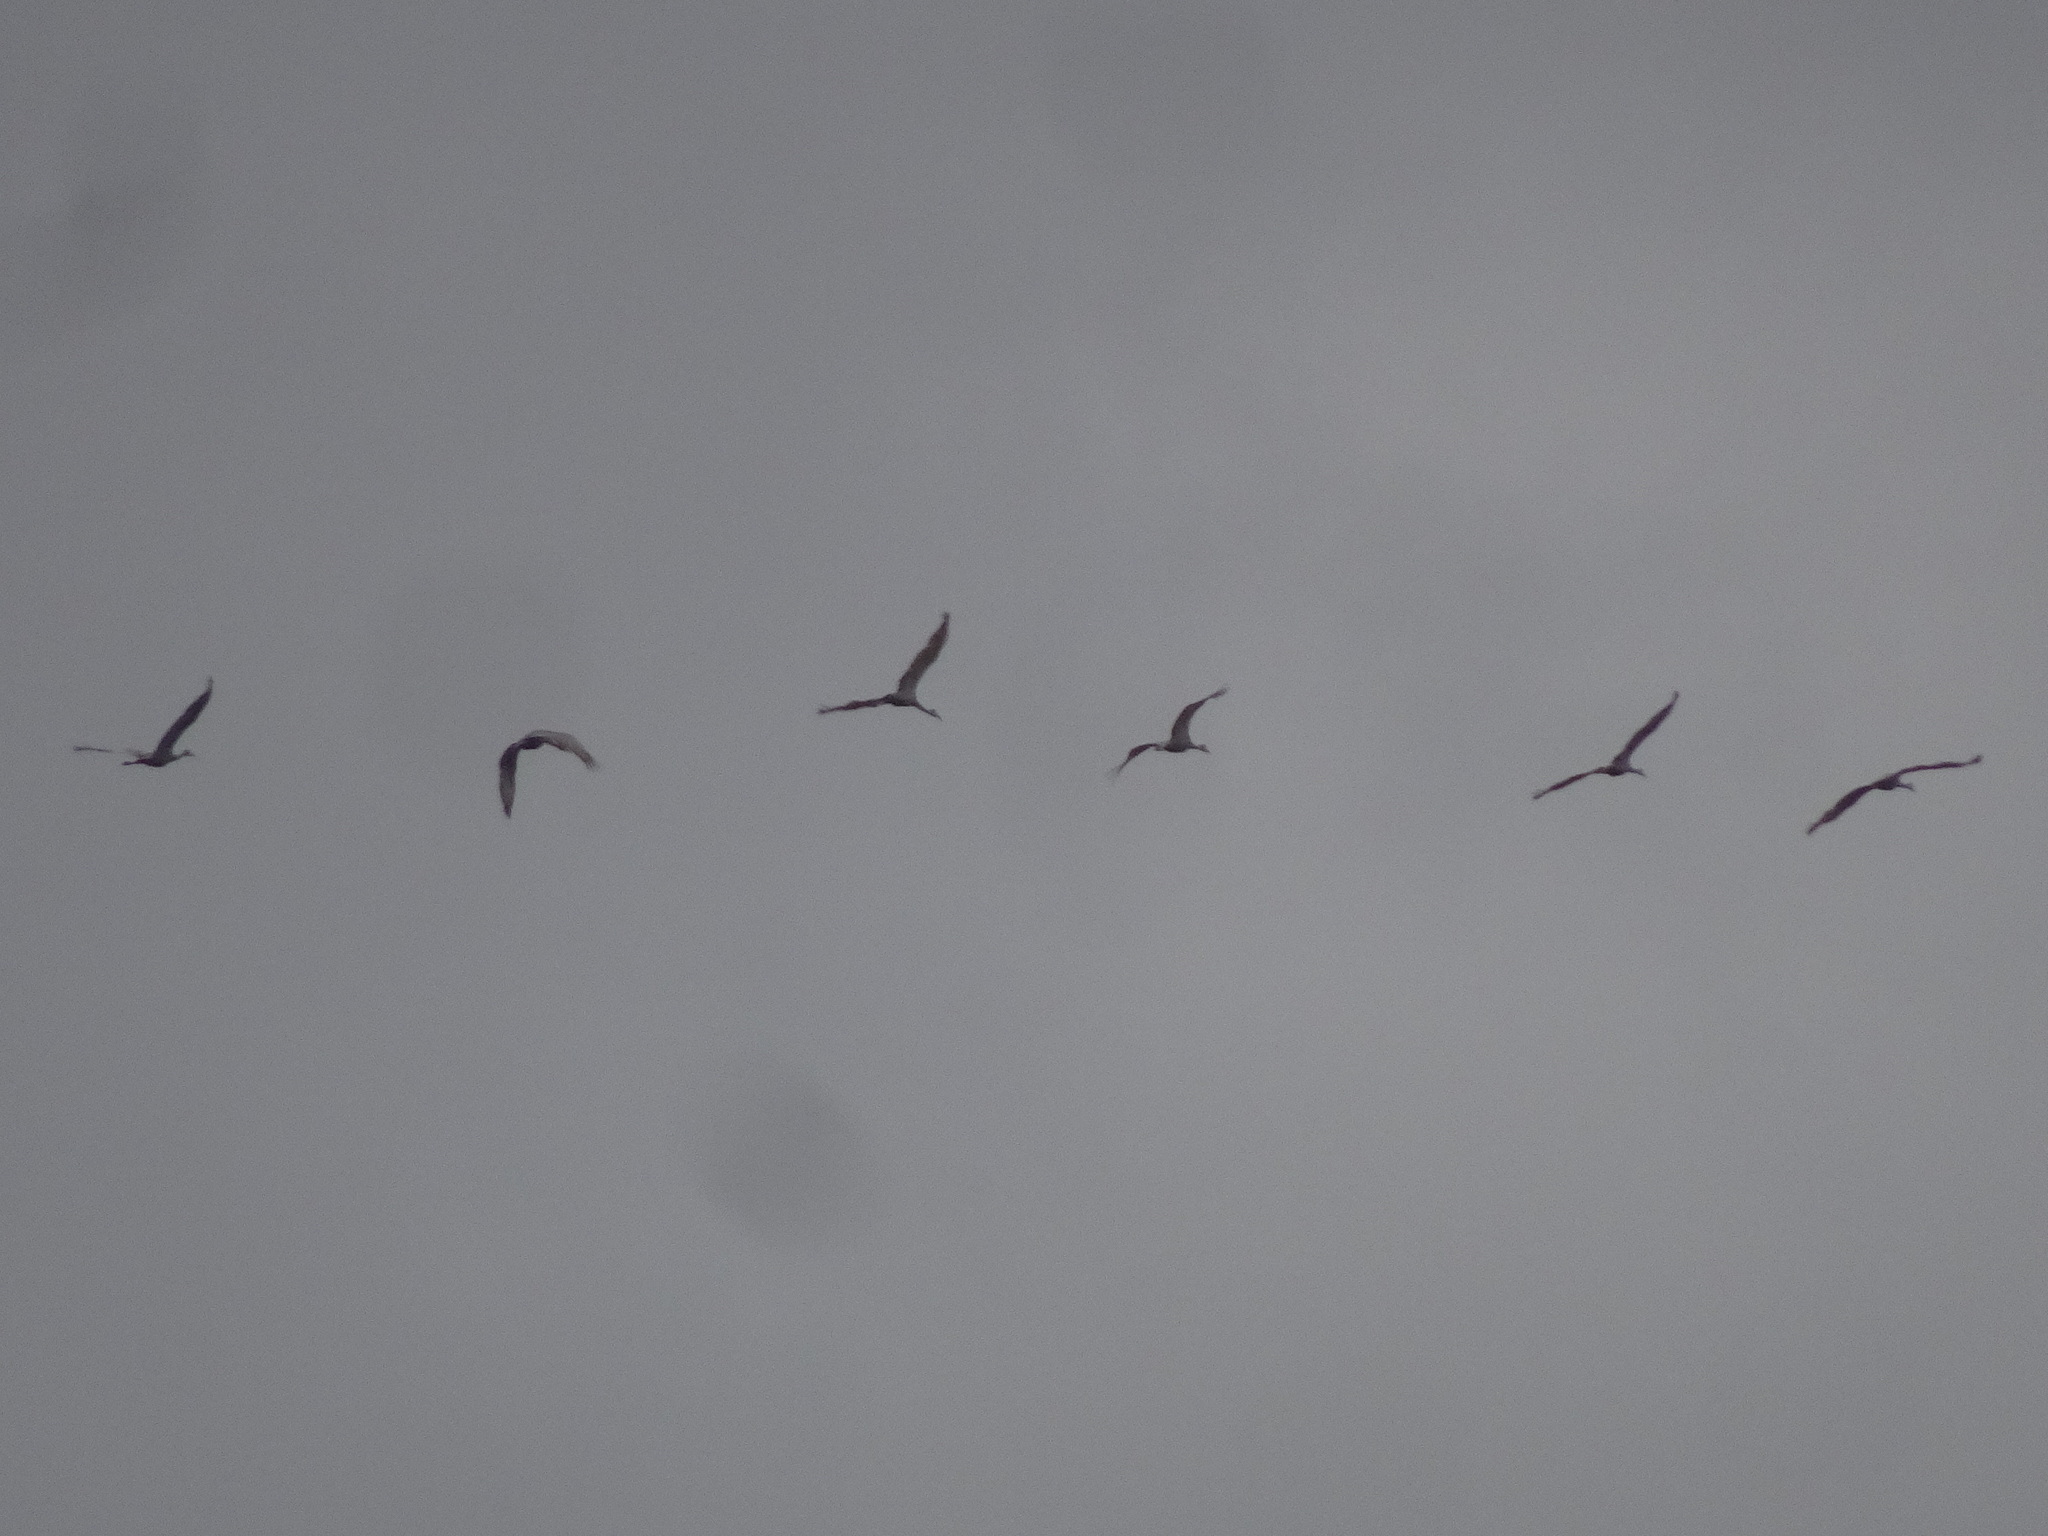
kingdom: Animalia
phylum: Chordata
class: Aves
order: Gruiformes
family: Gruidae
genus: Grus
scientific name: Grus canadensis
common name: Sandhill crane
